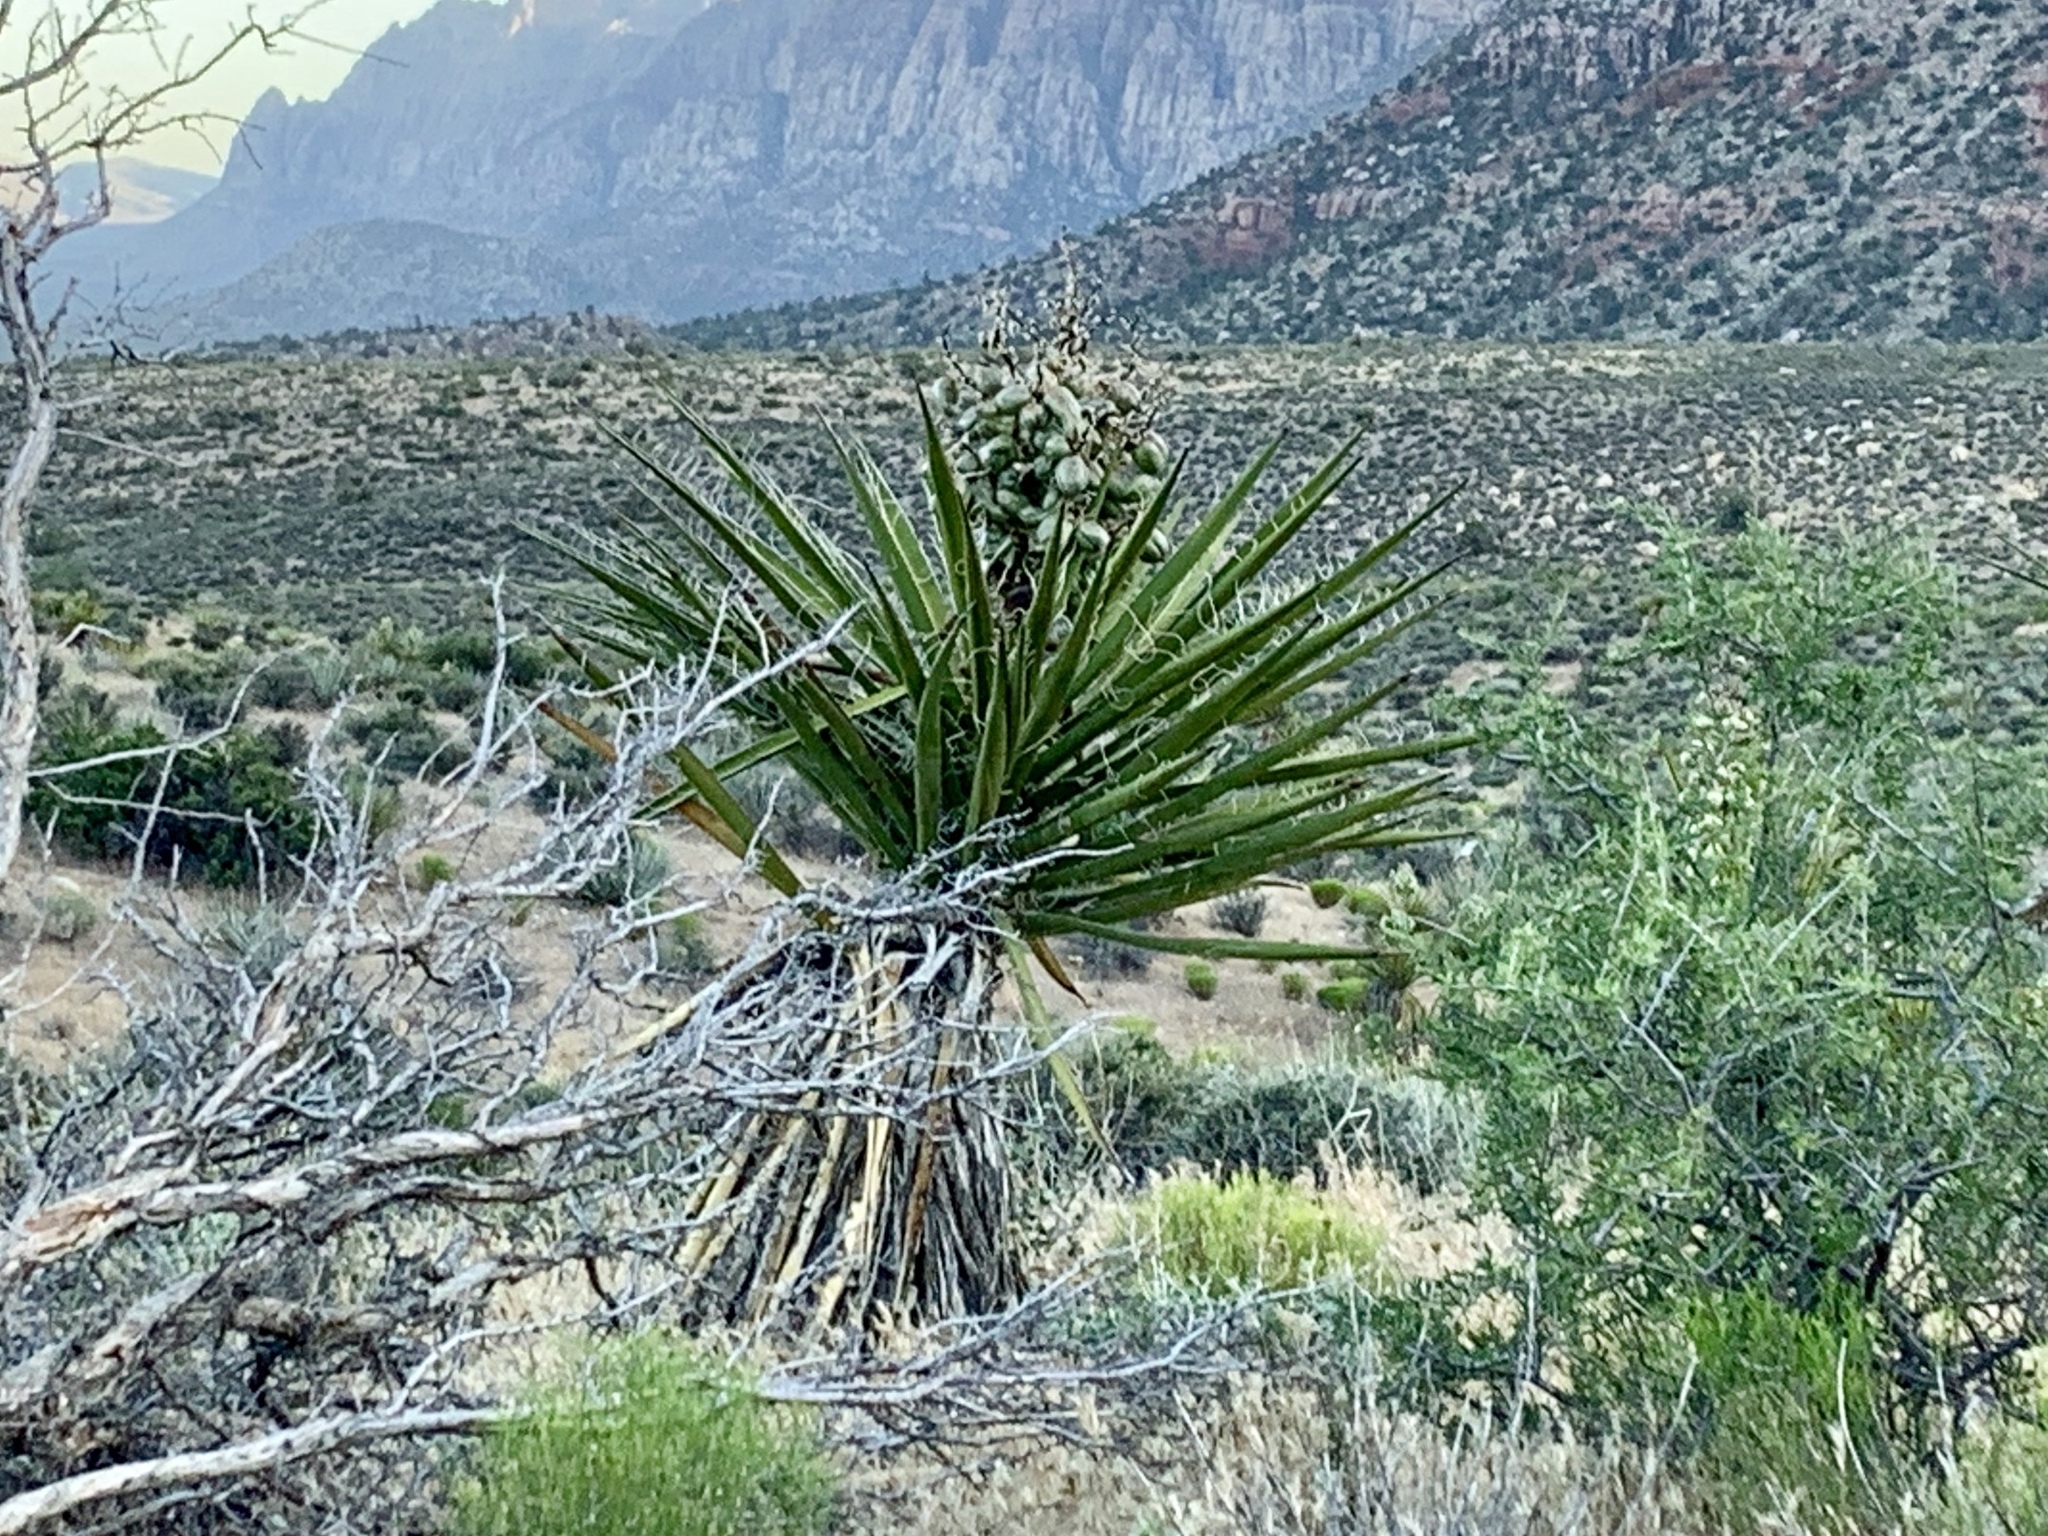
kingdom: Plantae
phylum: Tracheophyta
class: Liliopsida
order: Asparagales
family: Asparagaceae
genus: Yucca
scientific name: Yucca schidigera
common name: Mojave yucca
